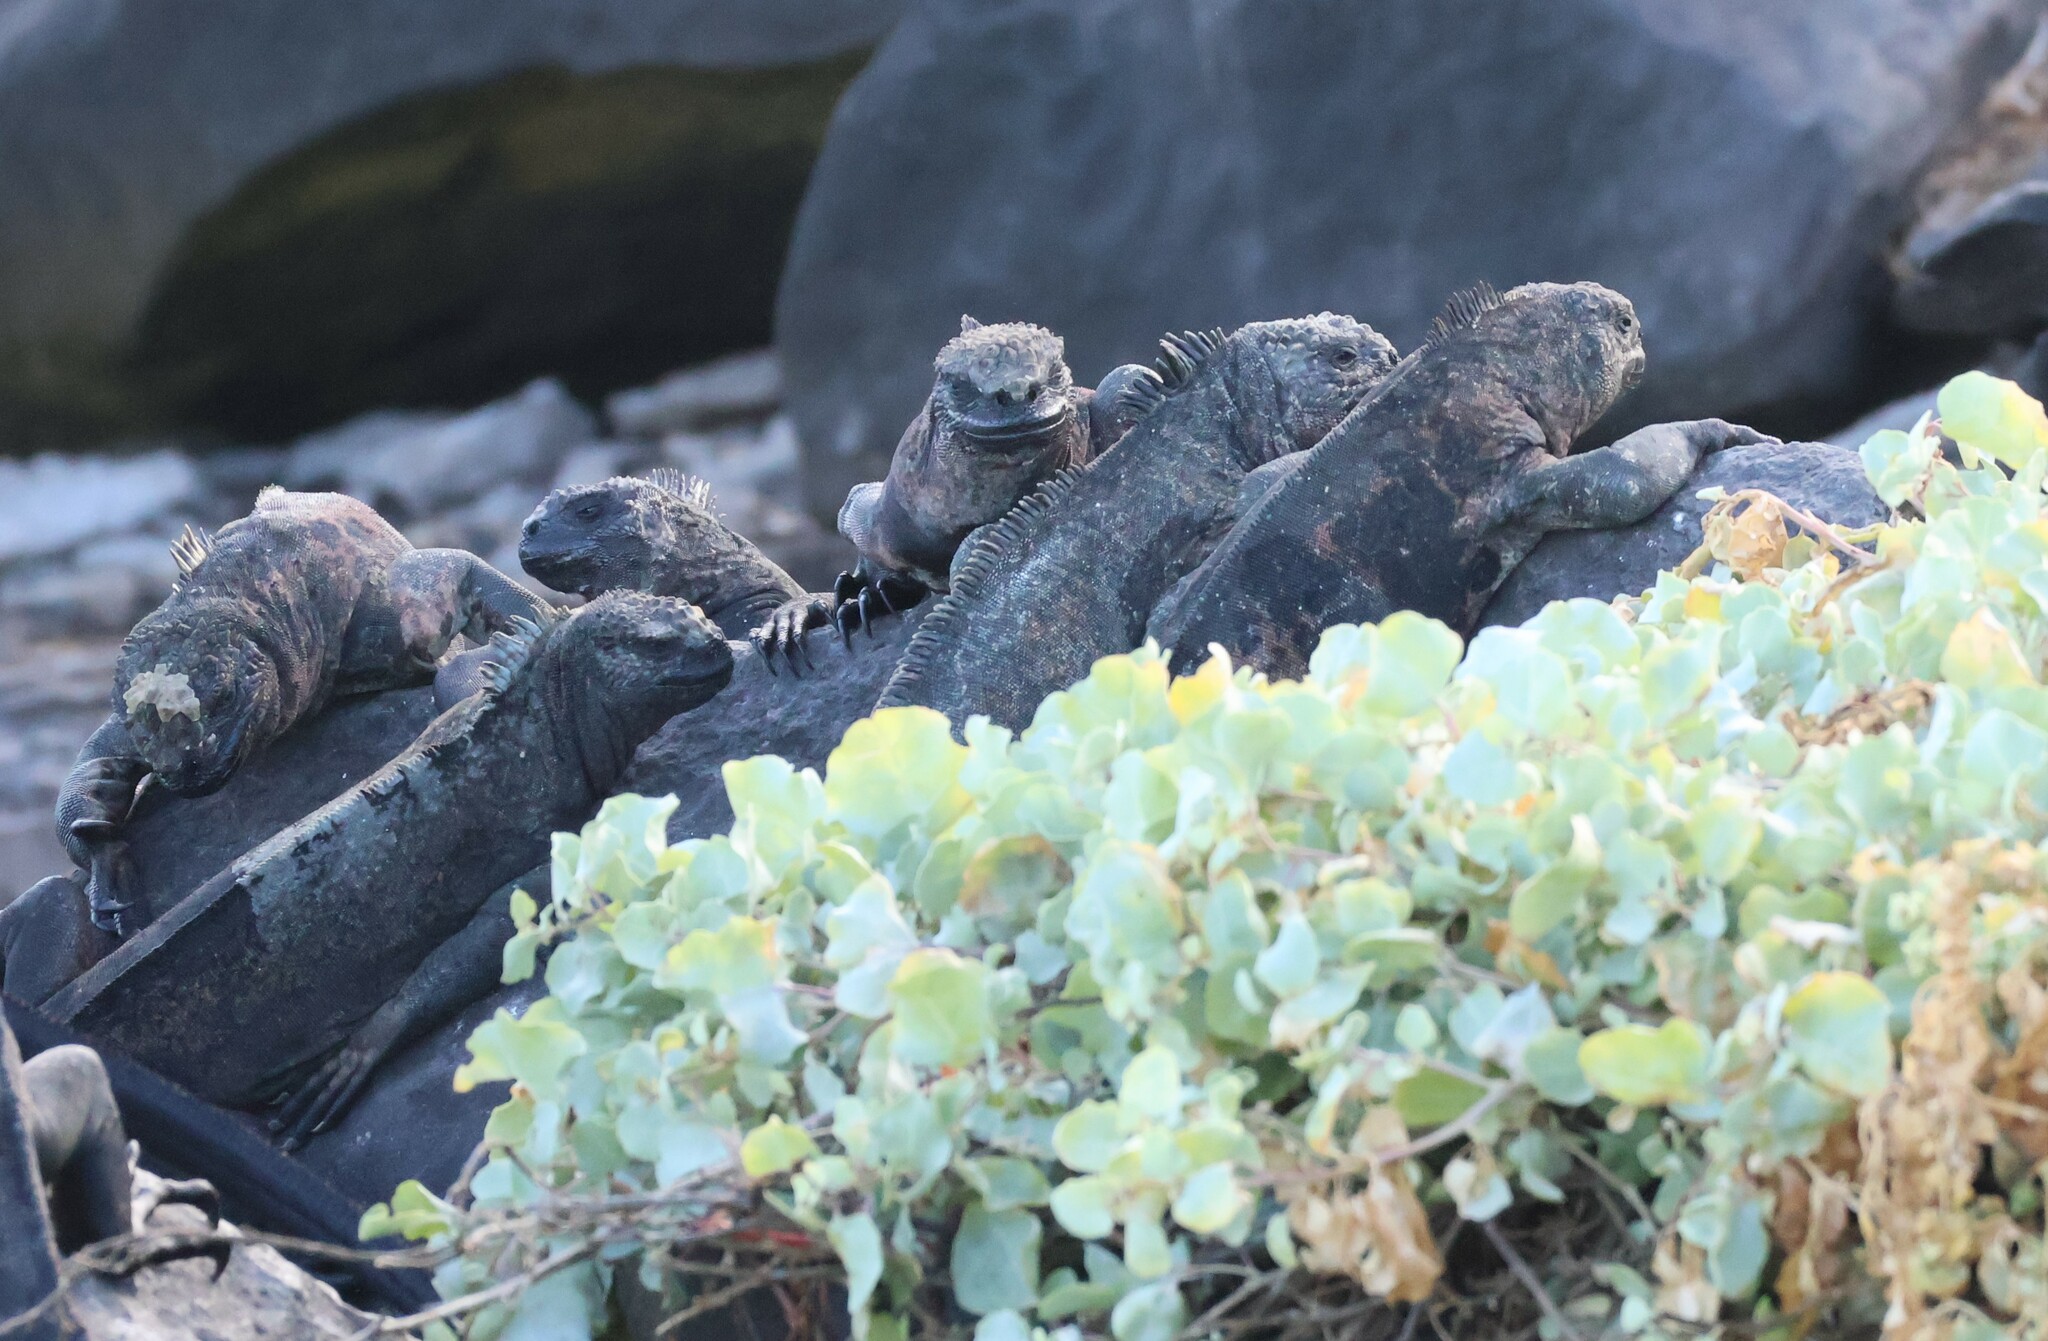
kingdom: Animalia
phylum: Chordata
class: Squamata
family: Iguanidae
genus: Amblyrhynchus
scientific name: Amblyrhynchus cristatus
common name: Marine iguana
